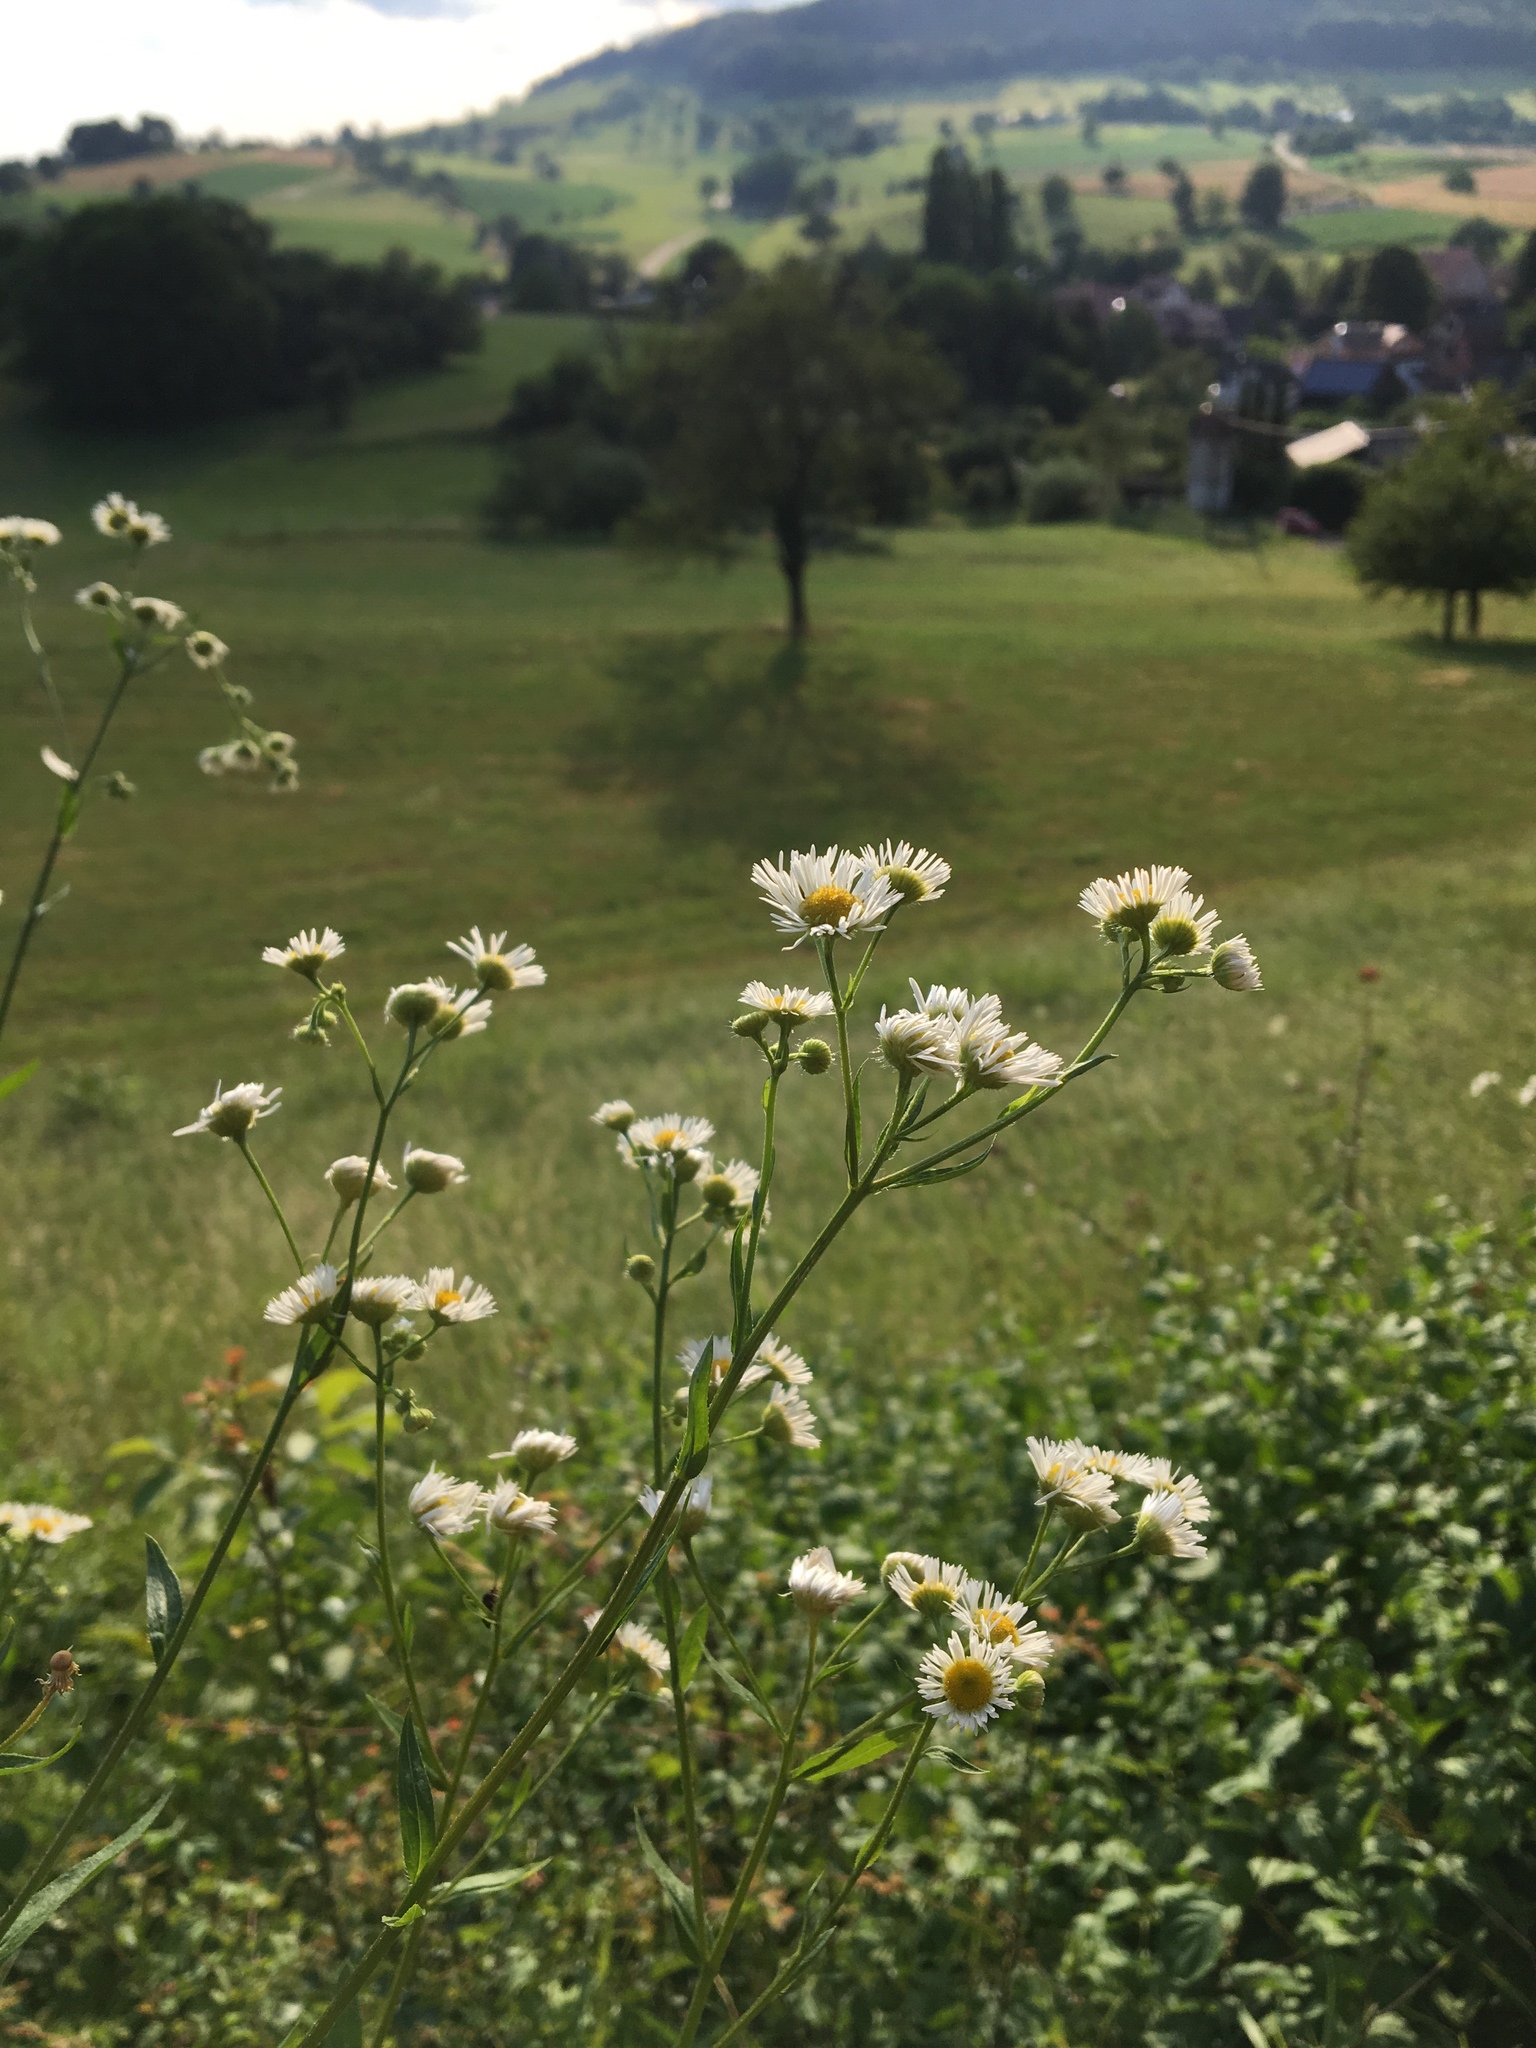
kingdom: Plantae
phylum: Tracheophyta
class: Magnoliopsida
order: Asterales
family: Asteraceae
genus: Erigeron
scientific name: Erigeron annuus
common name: Tall fleabane
